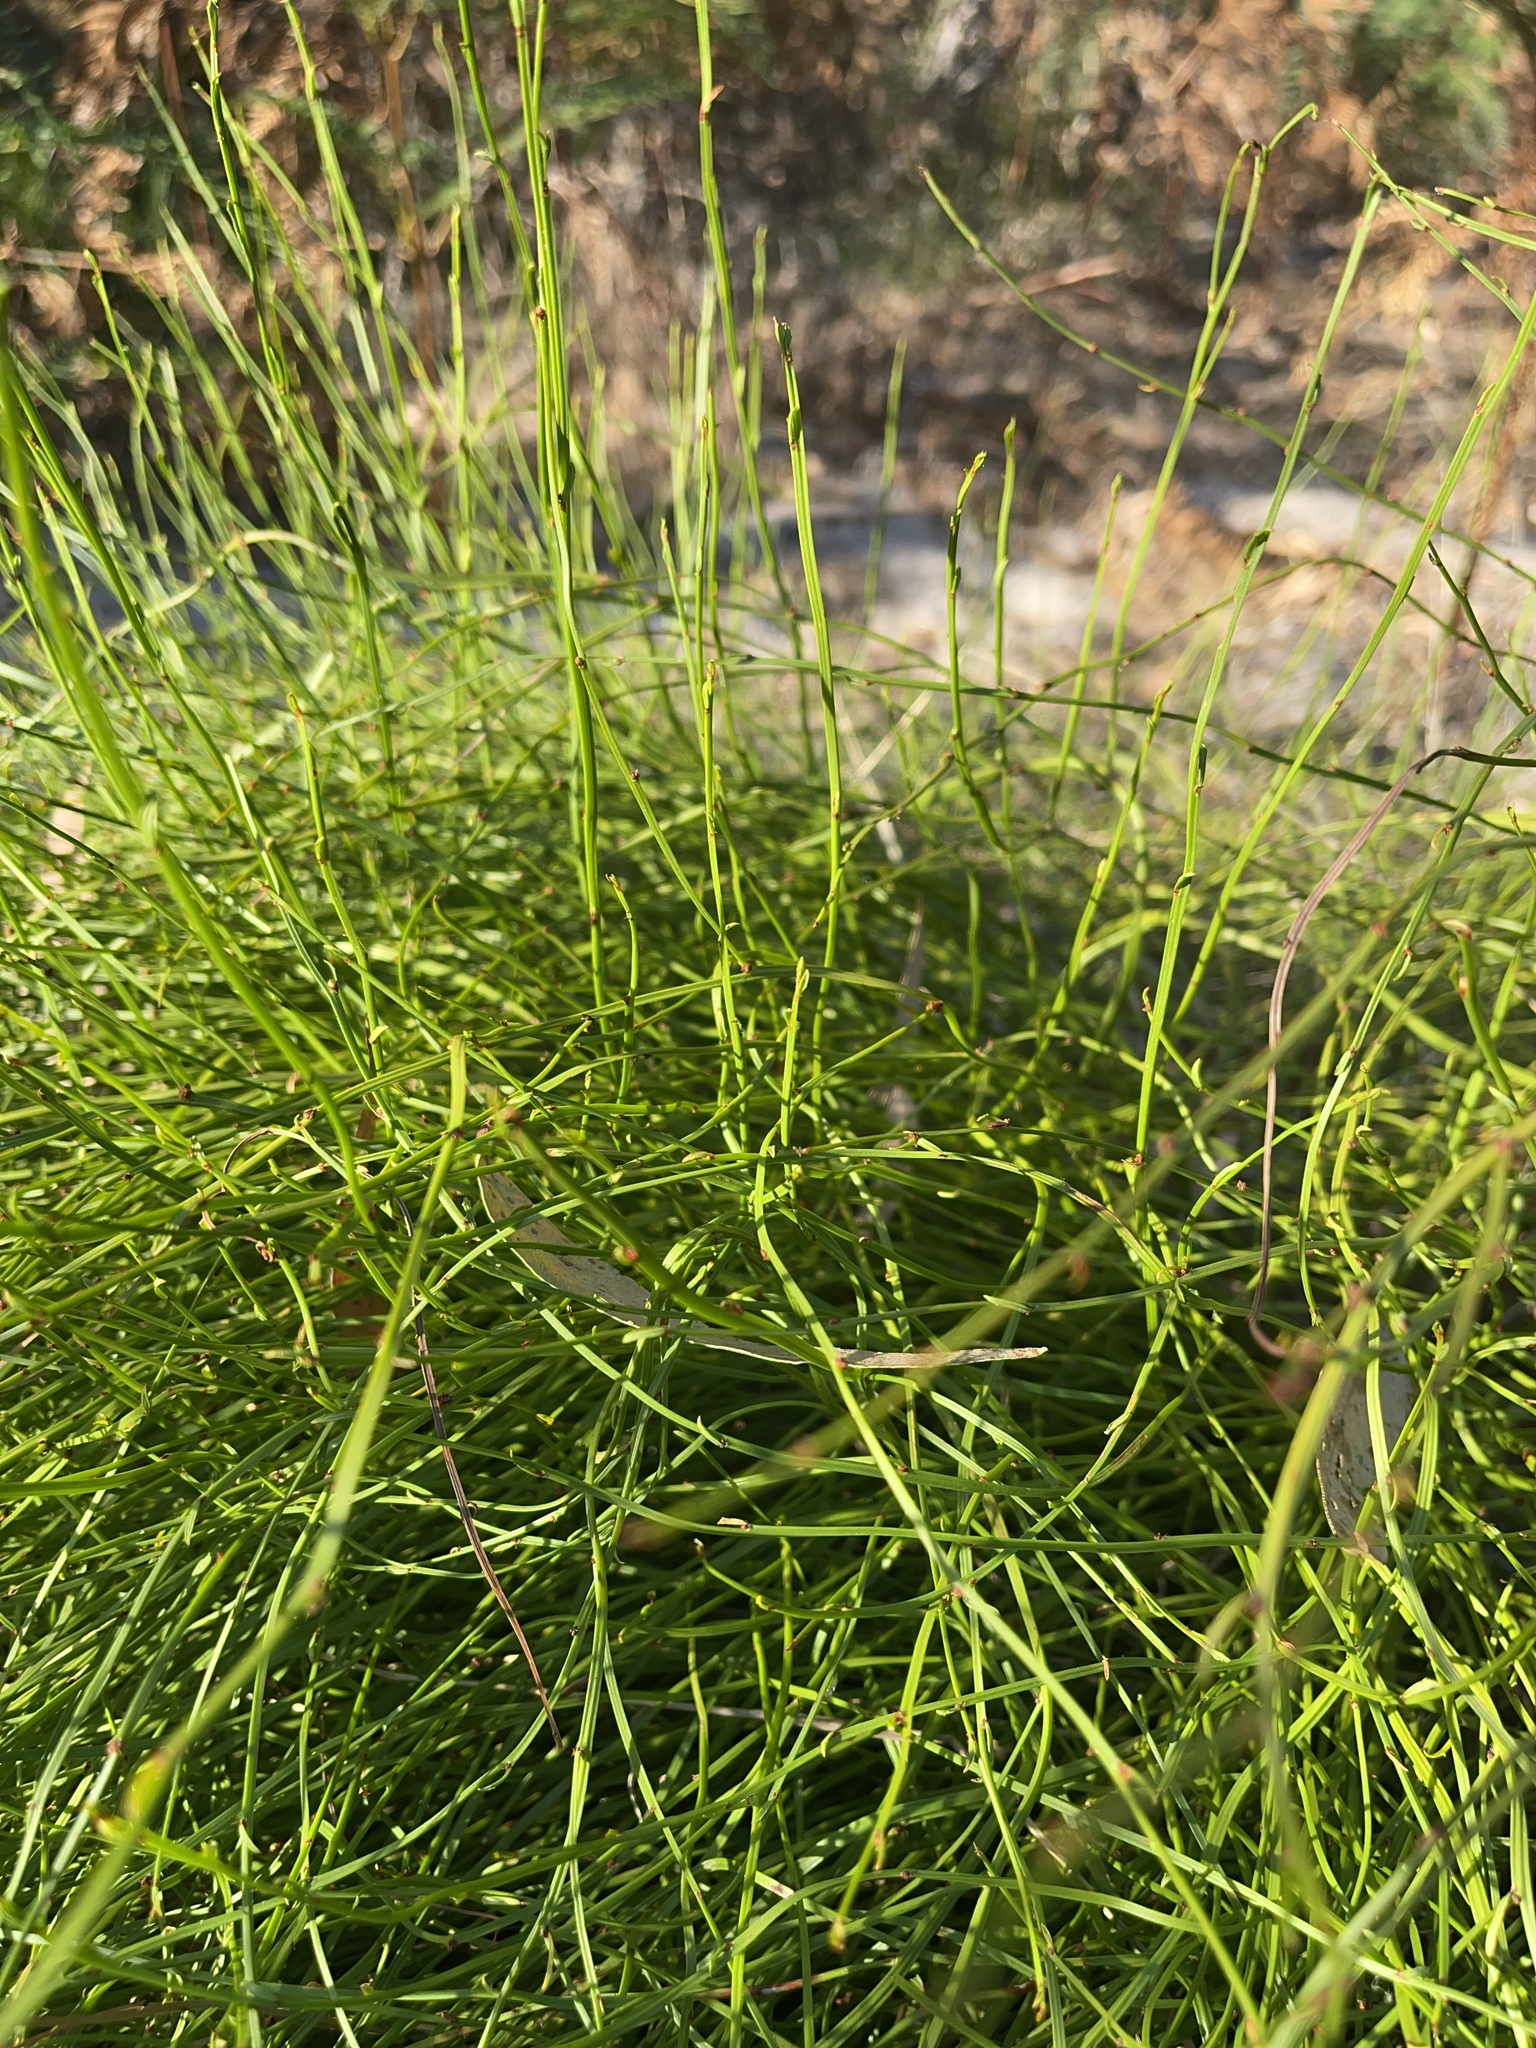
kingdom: Plantae
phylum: Tracheophyta
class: Magnoliopsida
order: Malpighiales
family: Euphorbiaceae
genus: Amperea
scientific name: Amperea xiphoclada
